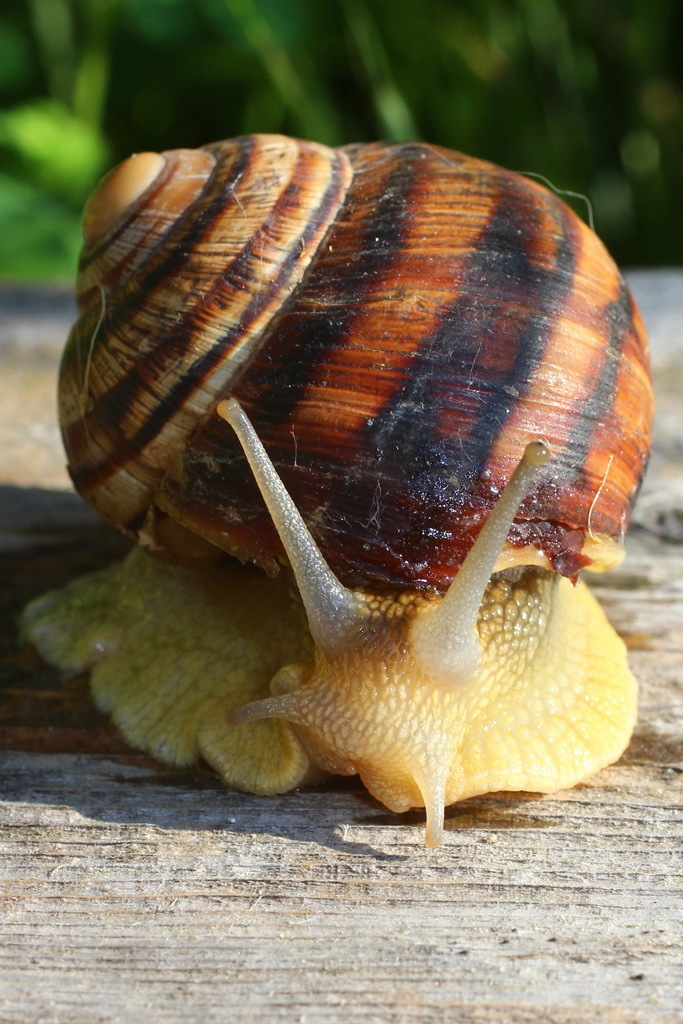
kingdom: Animalia
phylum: Mollusca
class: Gastropoda
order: Stylommatophora
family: Helicidae
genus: Helix
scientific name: Helix albescens
